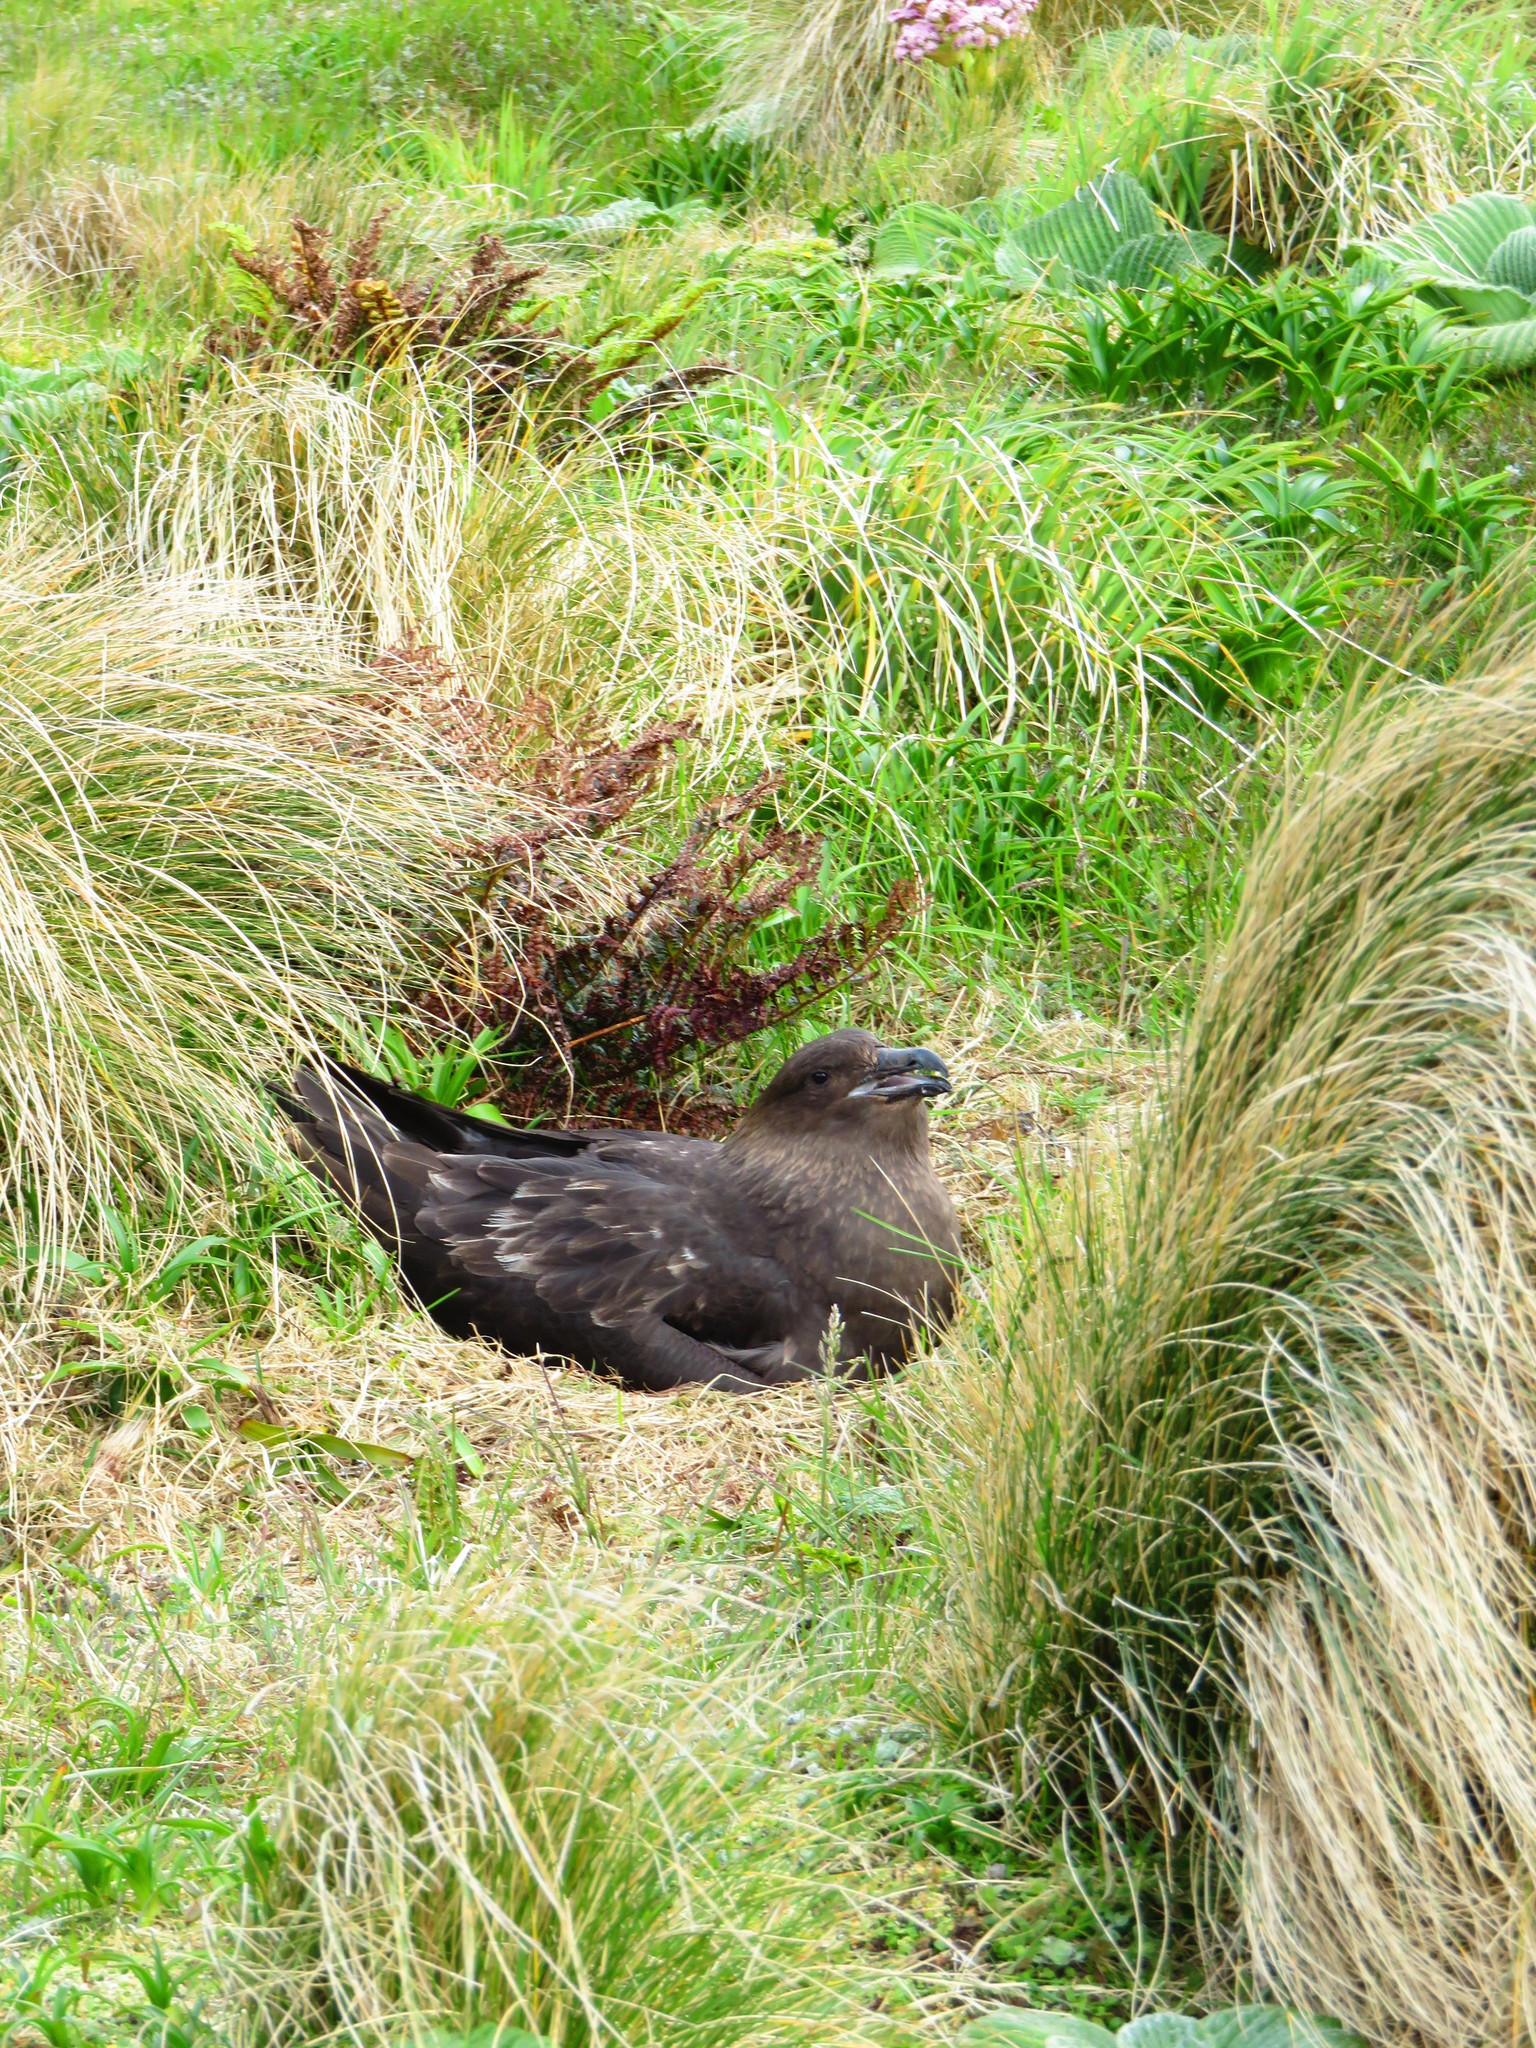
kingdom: Animalia
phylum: Chordata
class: Aves
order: Charadriiformes
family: Stercorariidae
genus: Stercorarius
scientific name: Stercorarius antarcticus
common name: Brown skua
